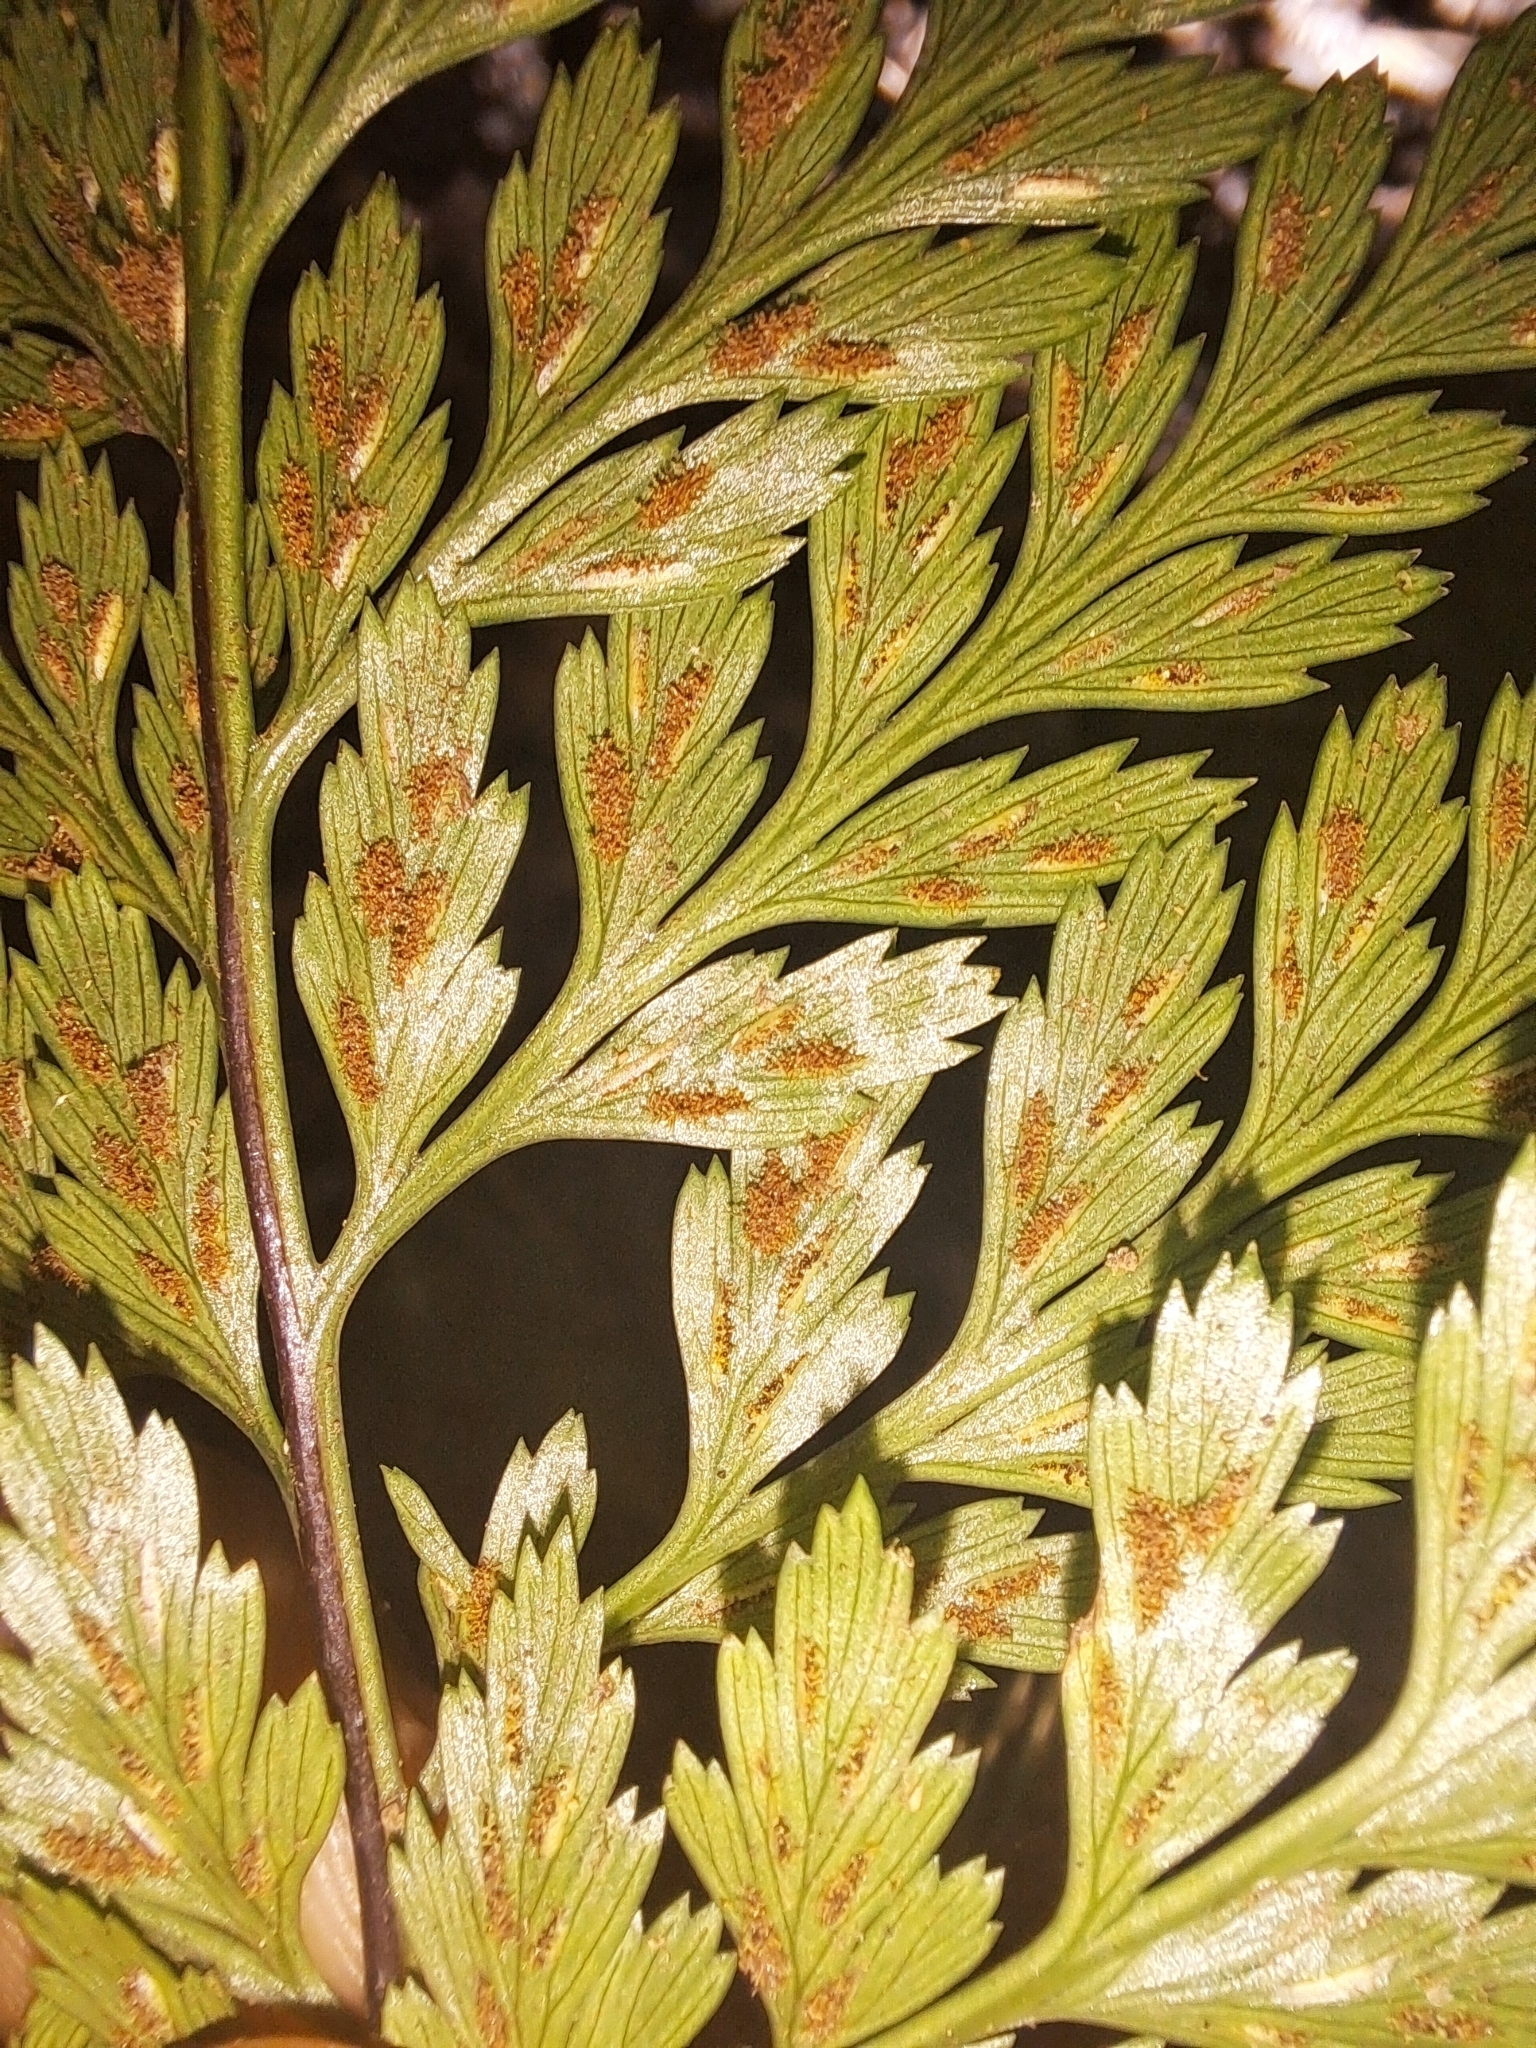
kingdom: Plantae
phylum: Tracheophyta
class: Polypodiopsida
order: Polypodiales
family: Aspleniaceae
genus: Asplenium
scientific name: Asplenium onopteris
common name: Irish spleenwort
